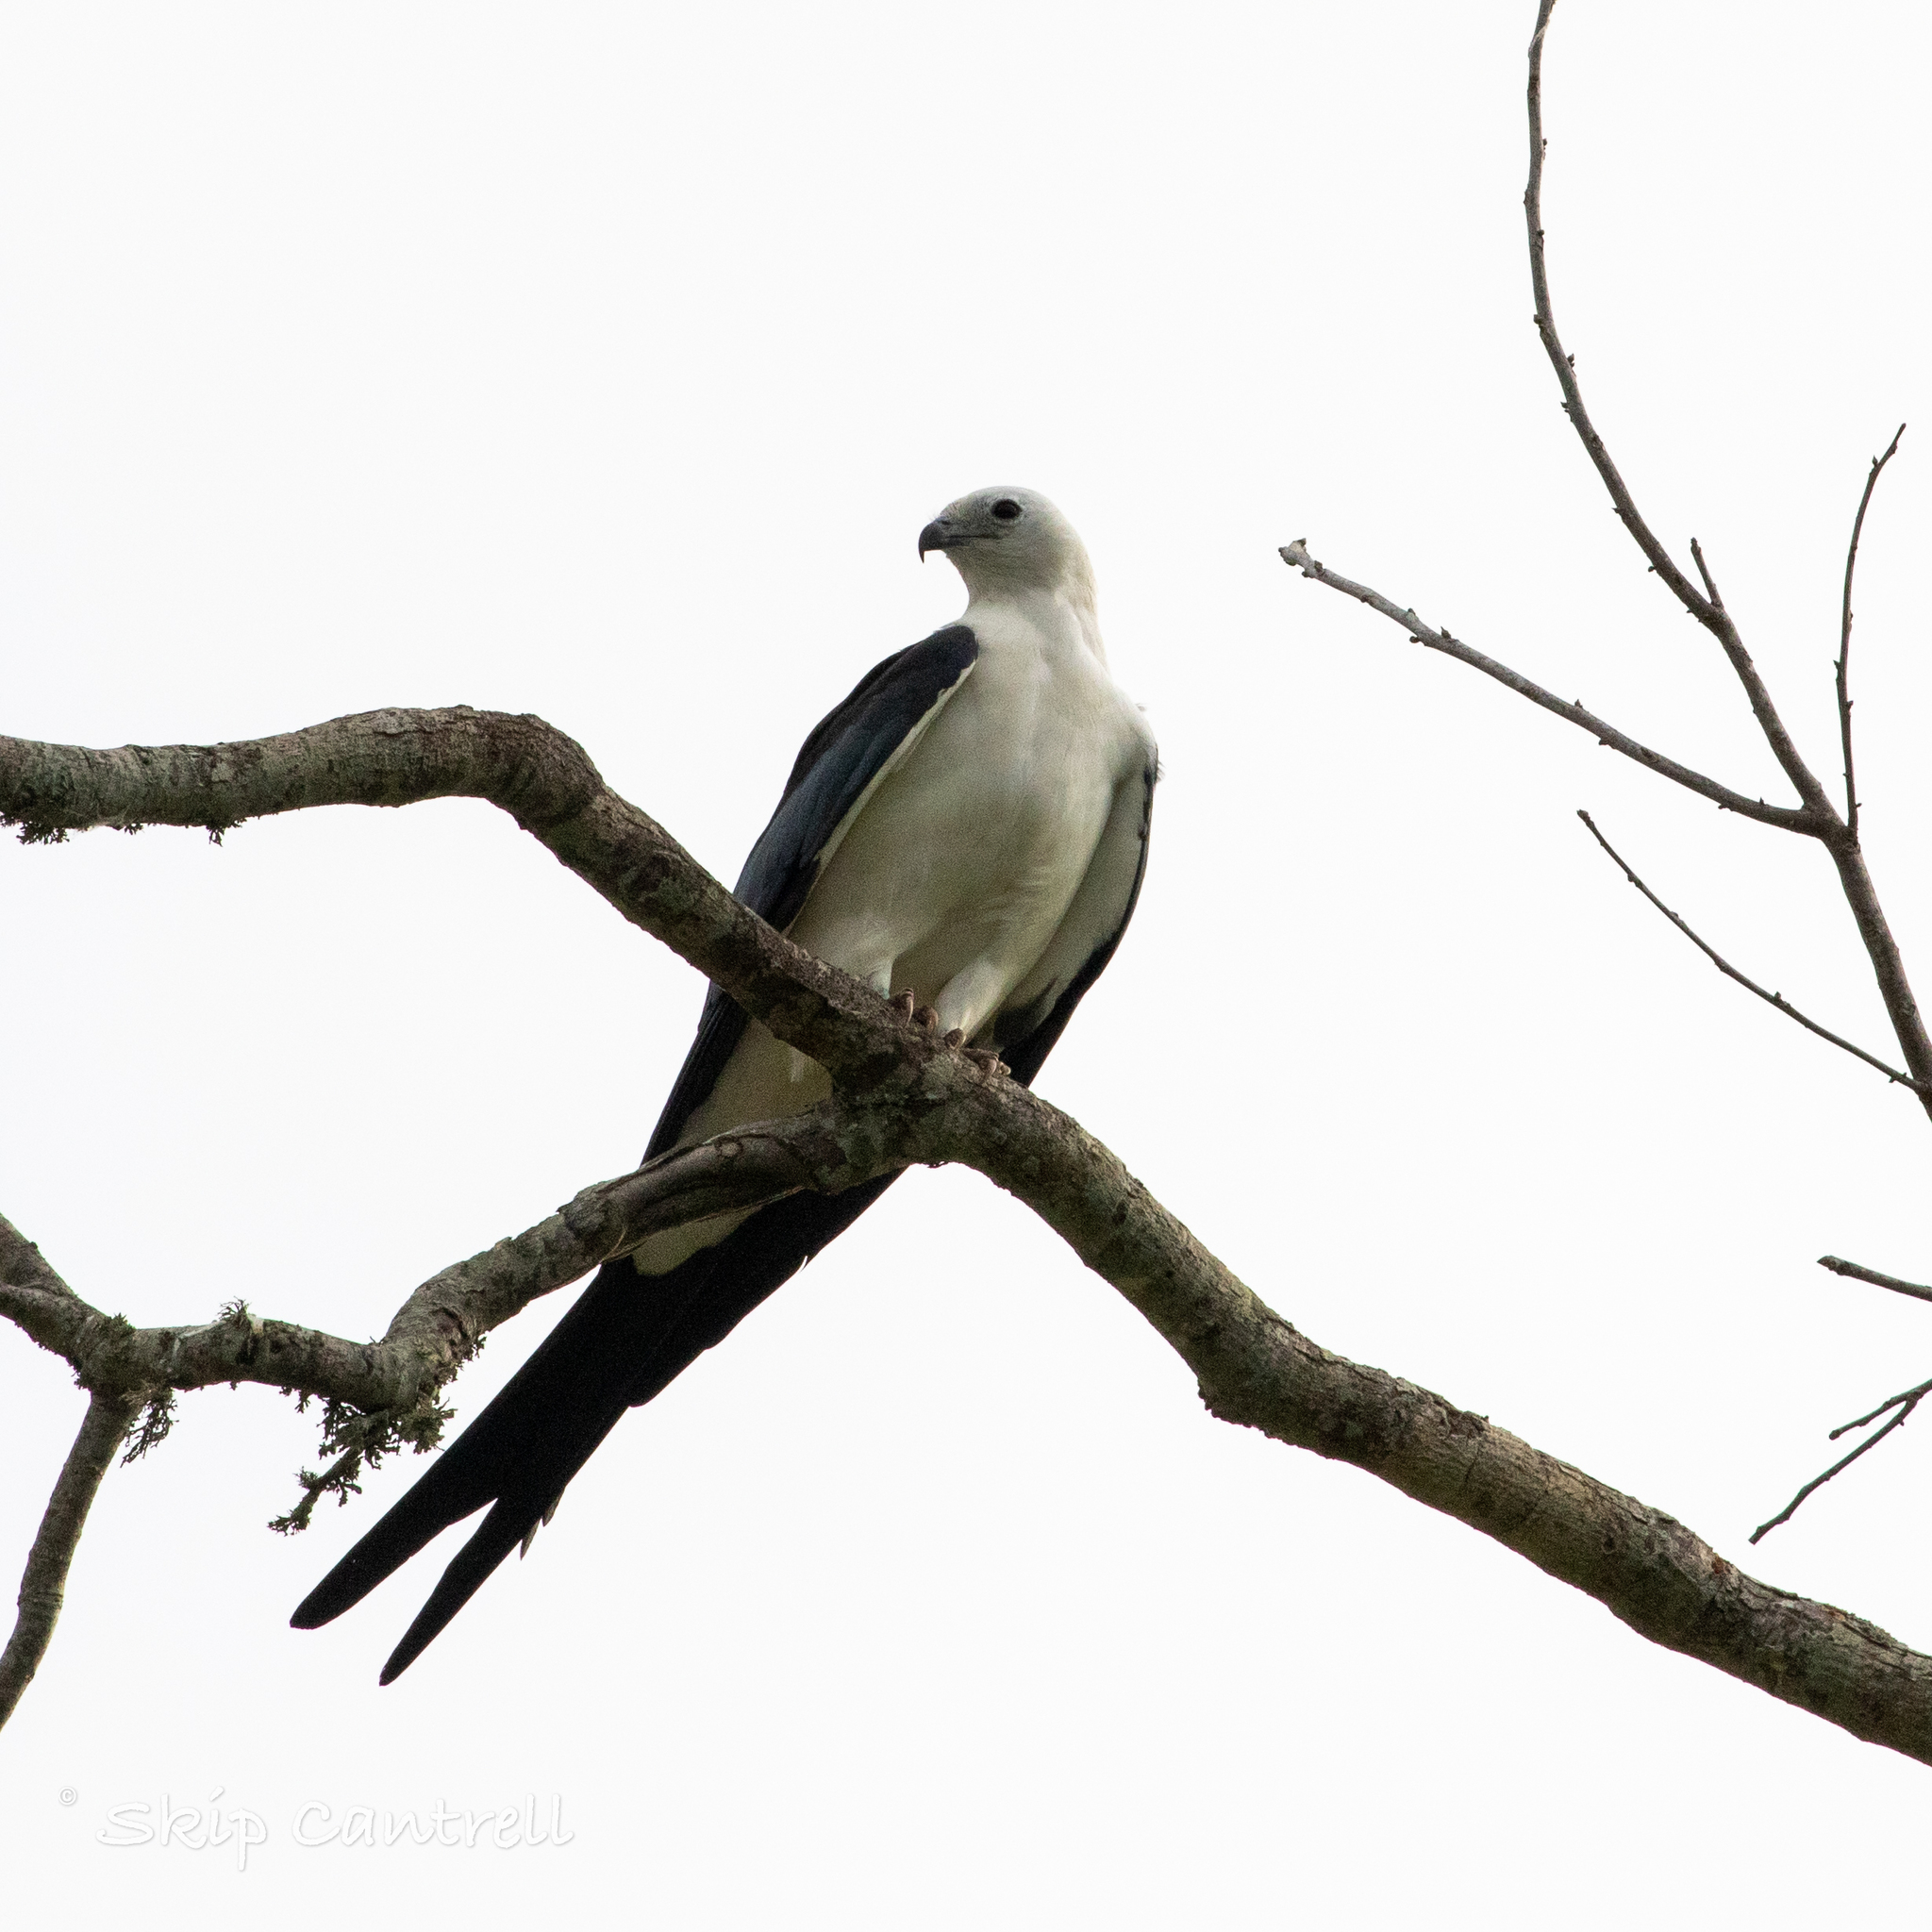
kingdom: Animalia
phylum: Chordata
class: Aves
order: Accipitriformes
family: Accipitridae
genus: Elanoides
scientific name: Elanoides forficatus
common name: Swallow-tailed kite
